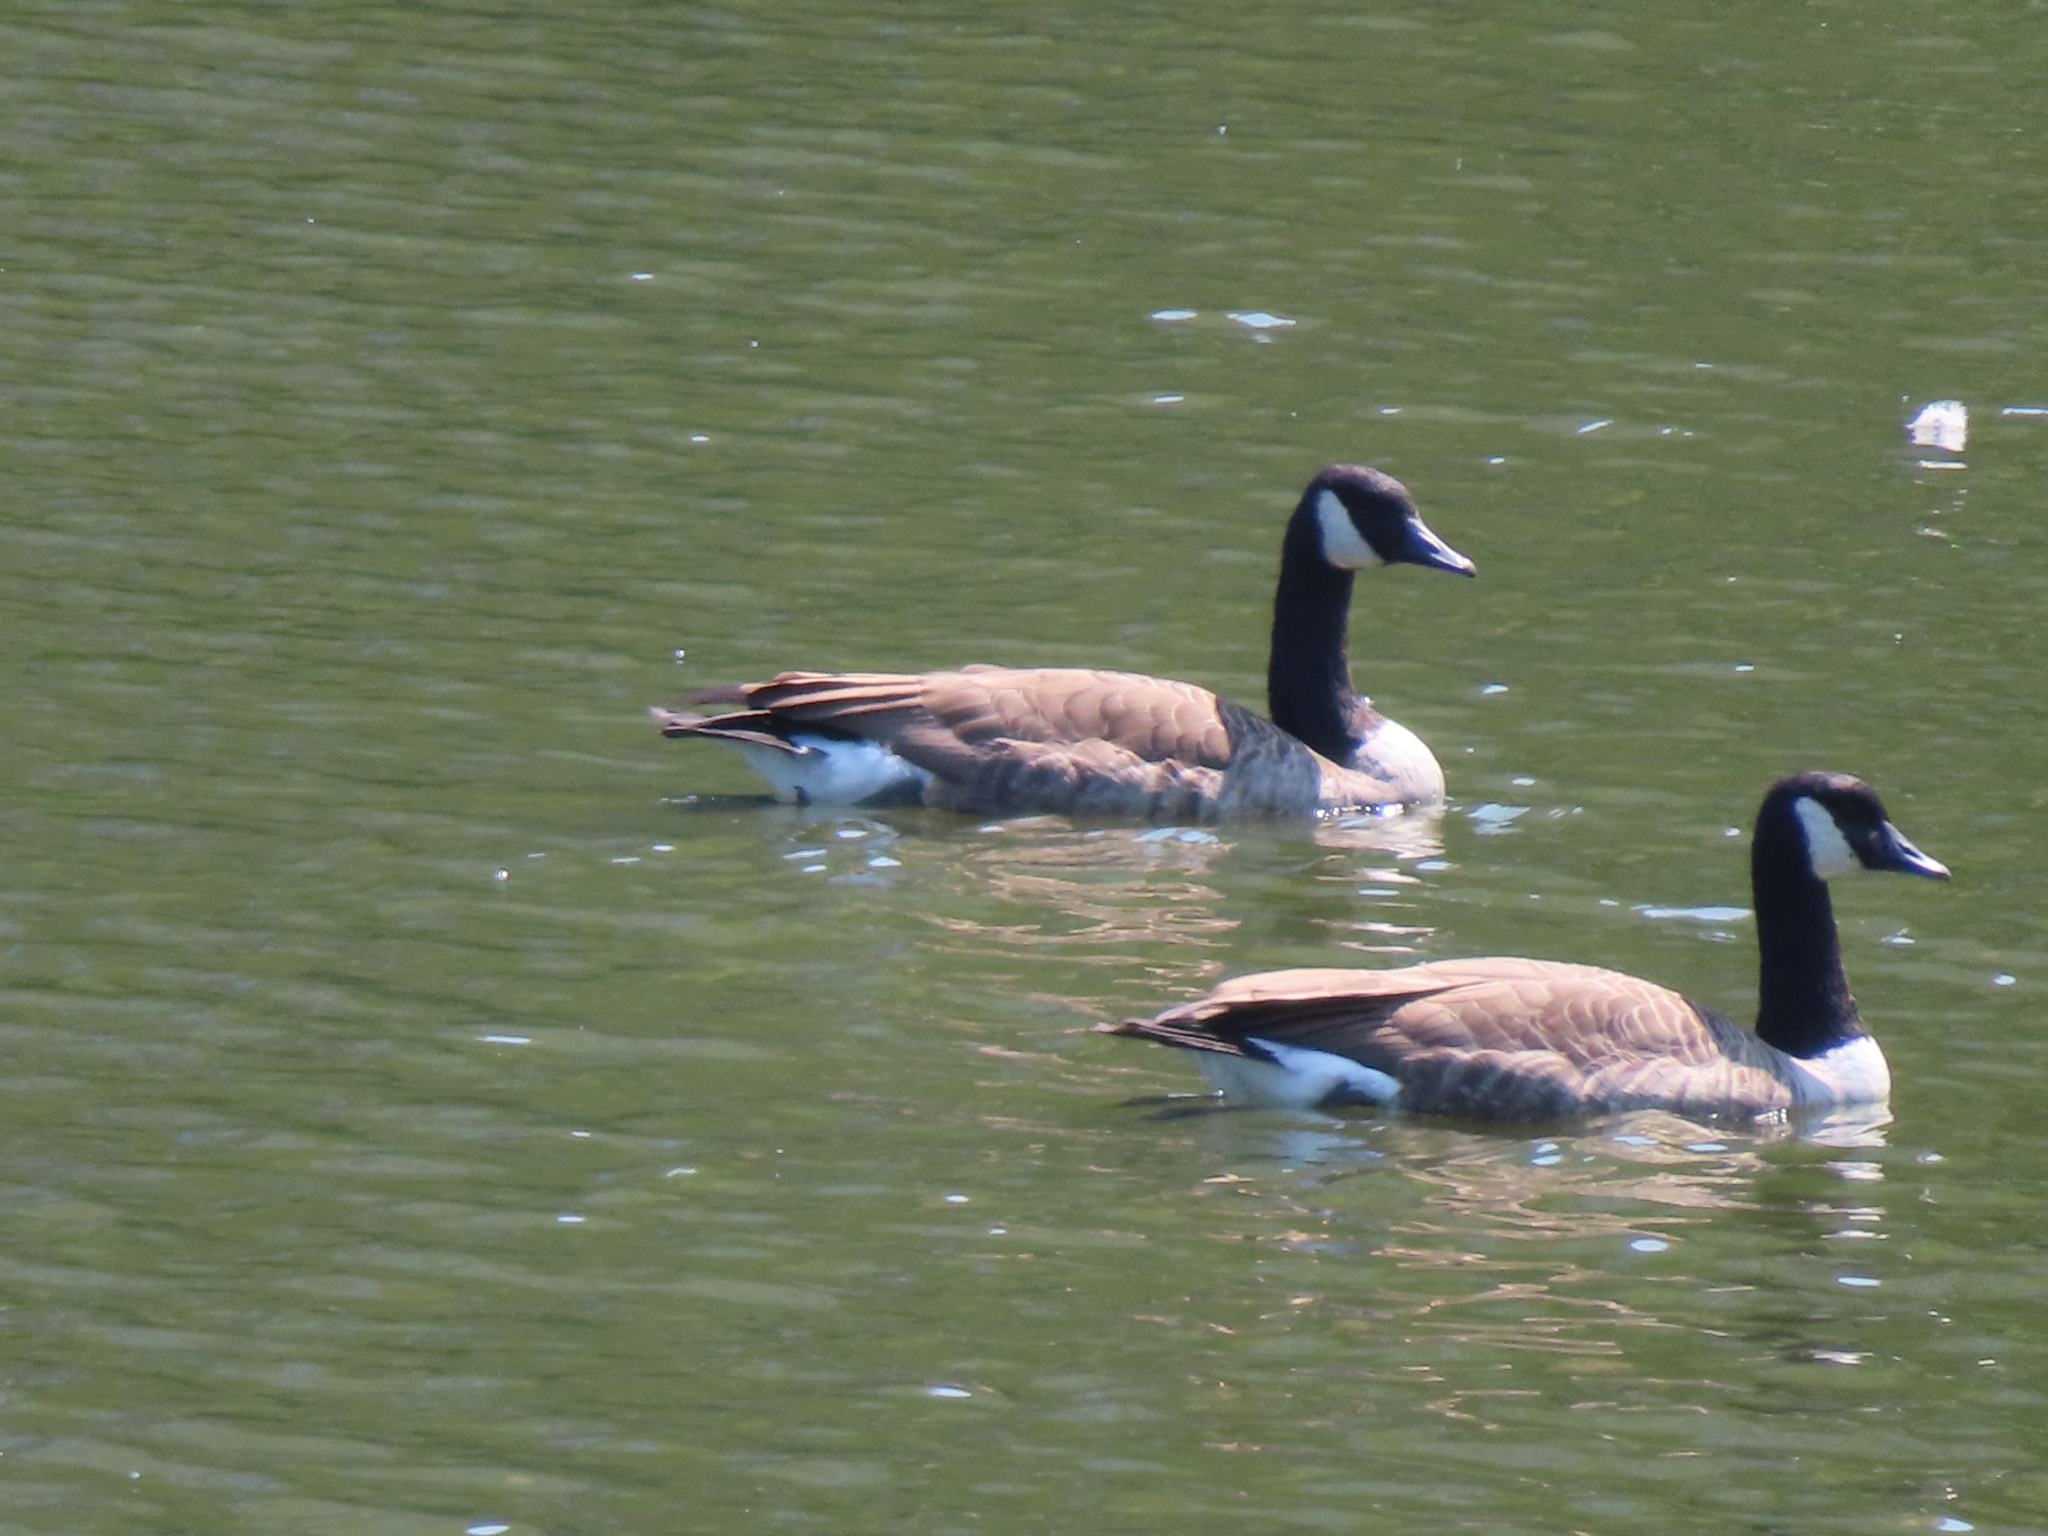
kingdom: Animalia
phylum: Chordata
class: Aves
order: Anseriformes
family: Anatidae
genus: Branta
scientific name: Branta canadensis
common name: Canada goose
